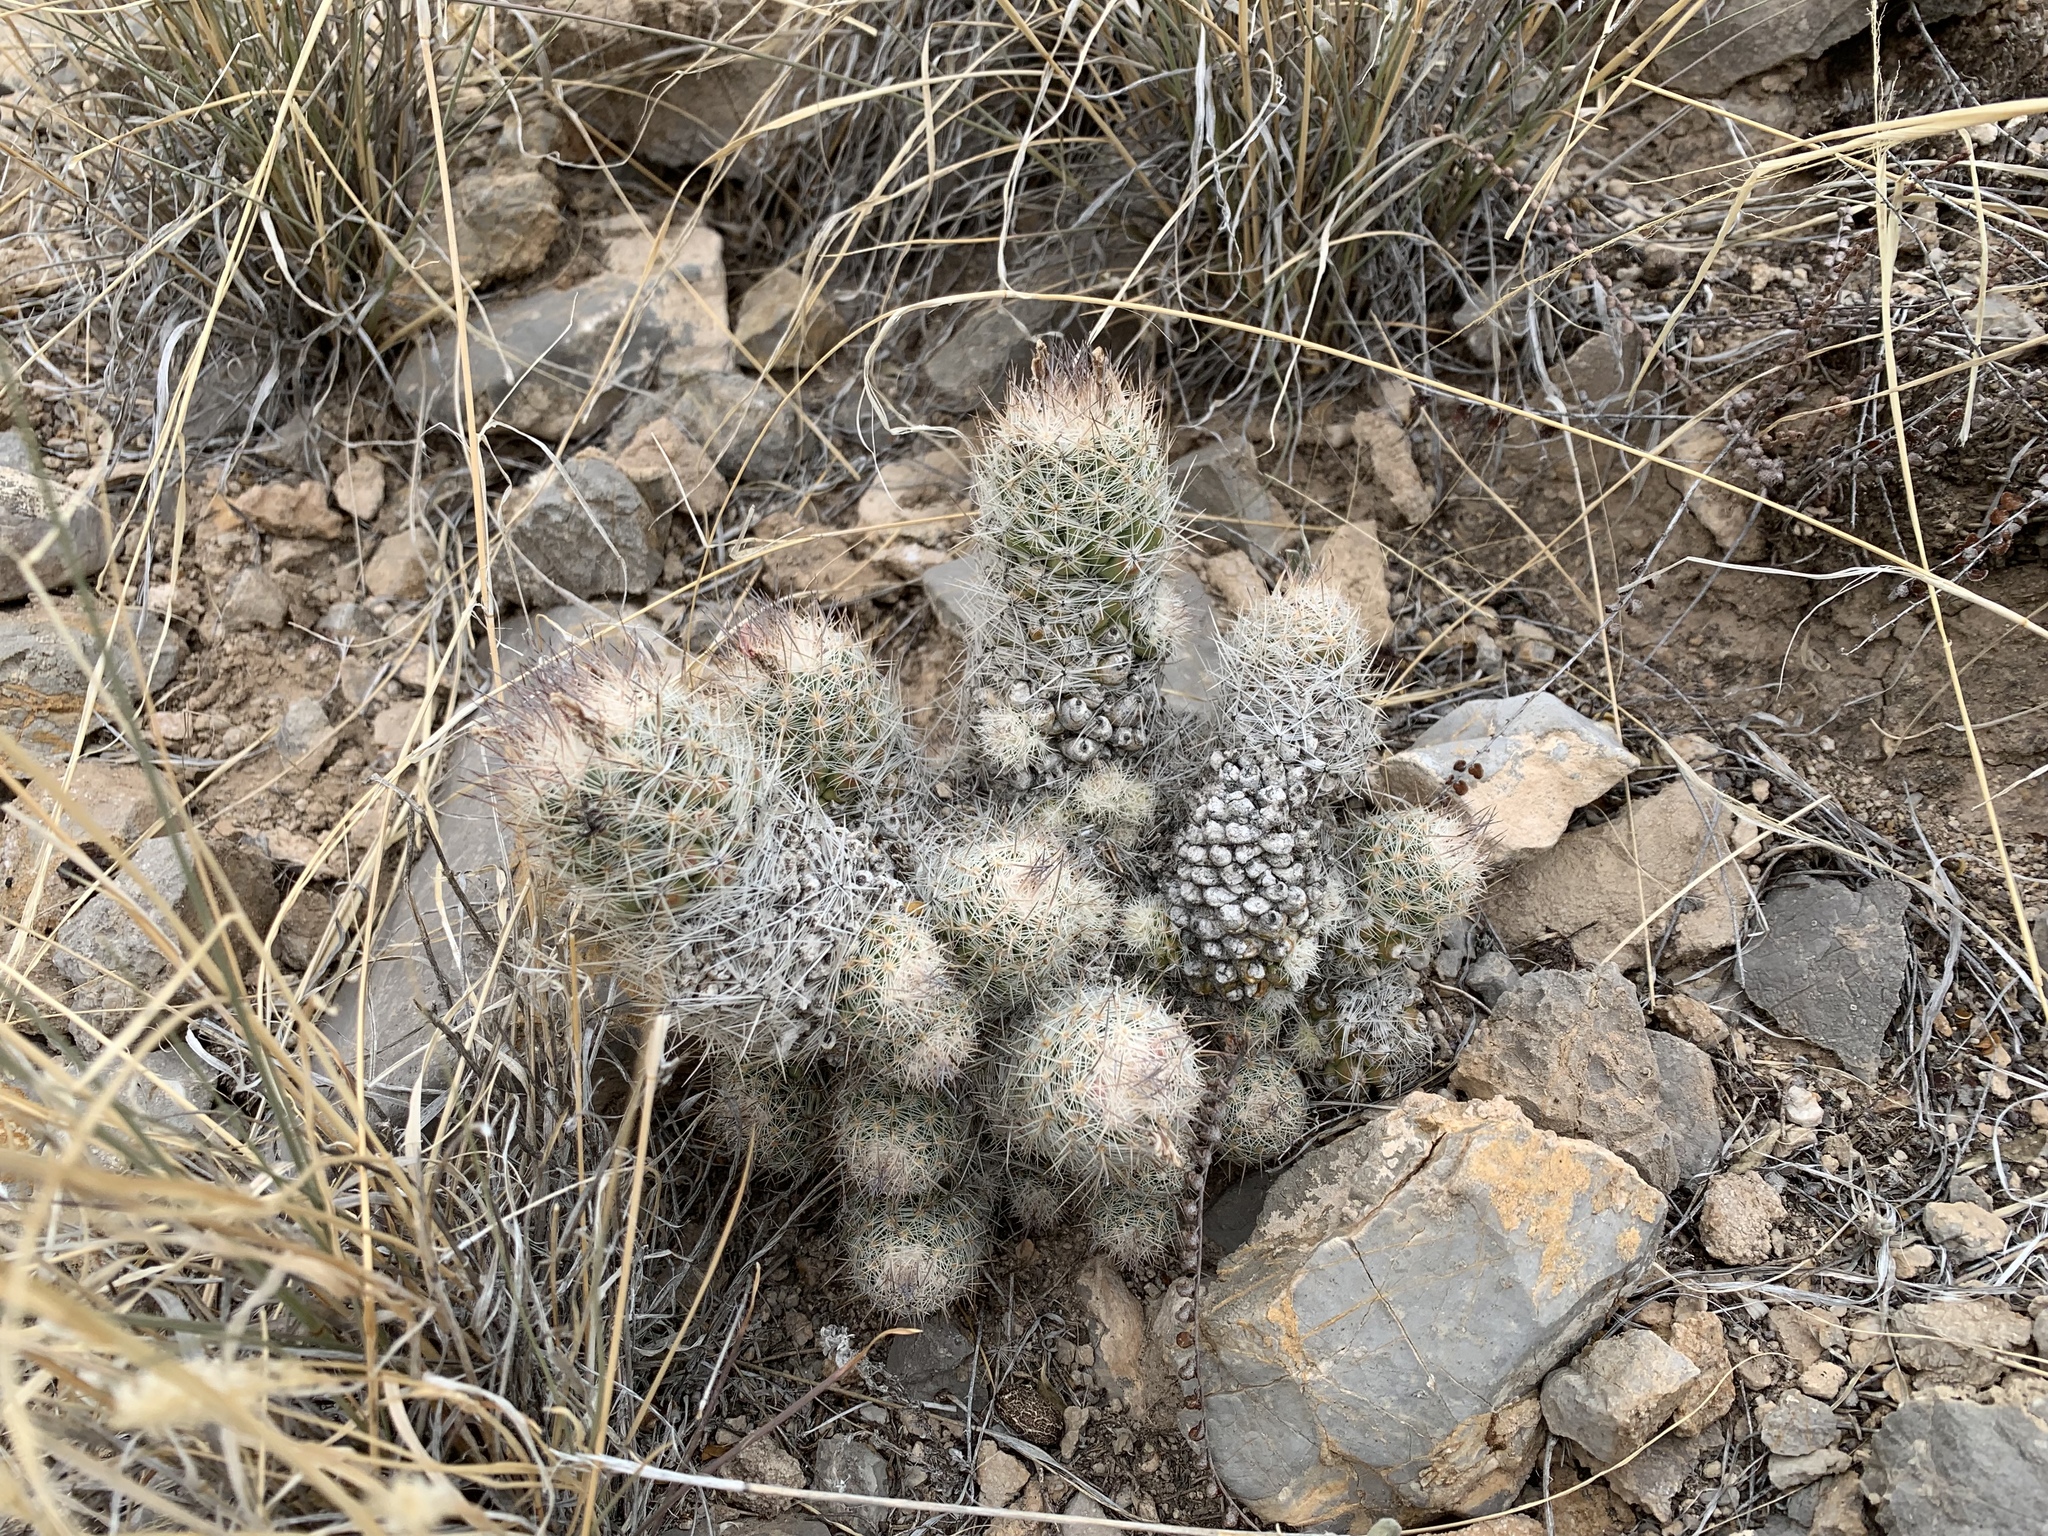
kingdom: Plantae
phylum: Tracheophyta
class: Magnoliopsida
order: Caryophyllales
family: Cactaceae
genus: Pelecyphora
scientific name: Pelecyphora tuberculosa
